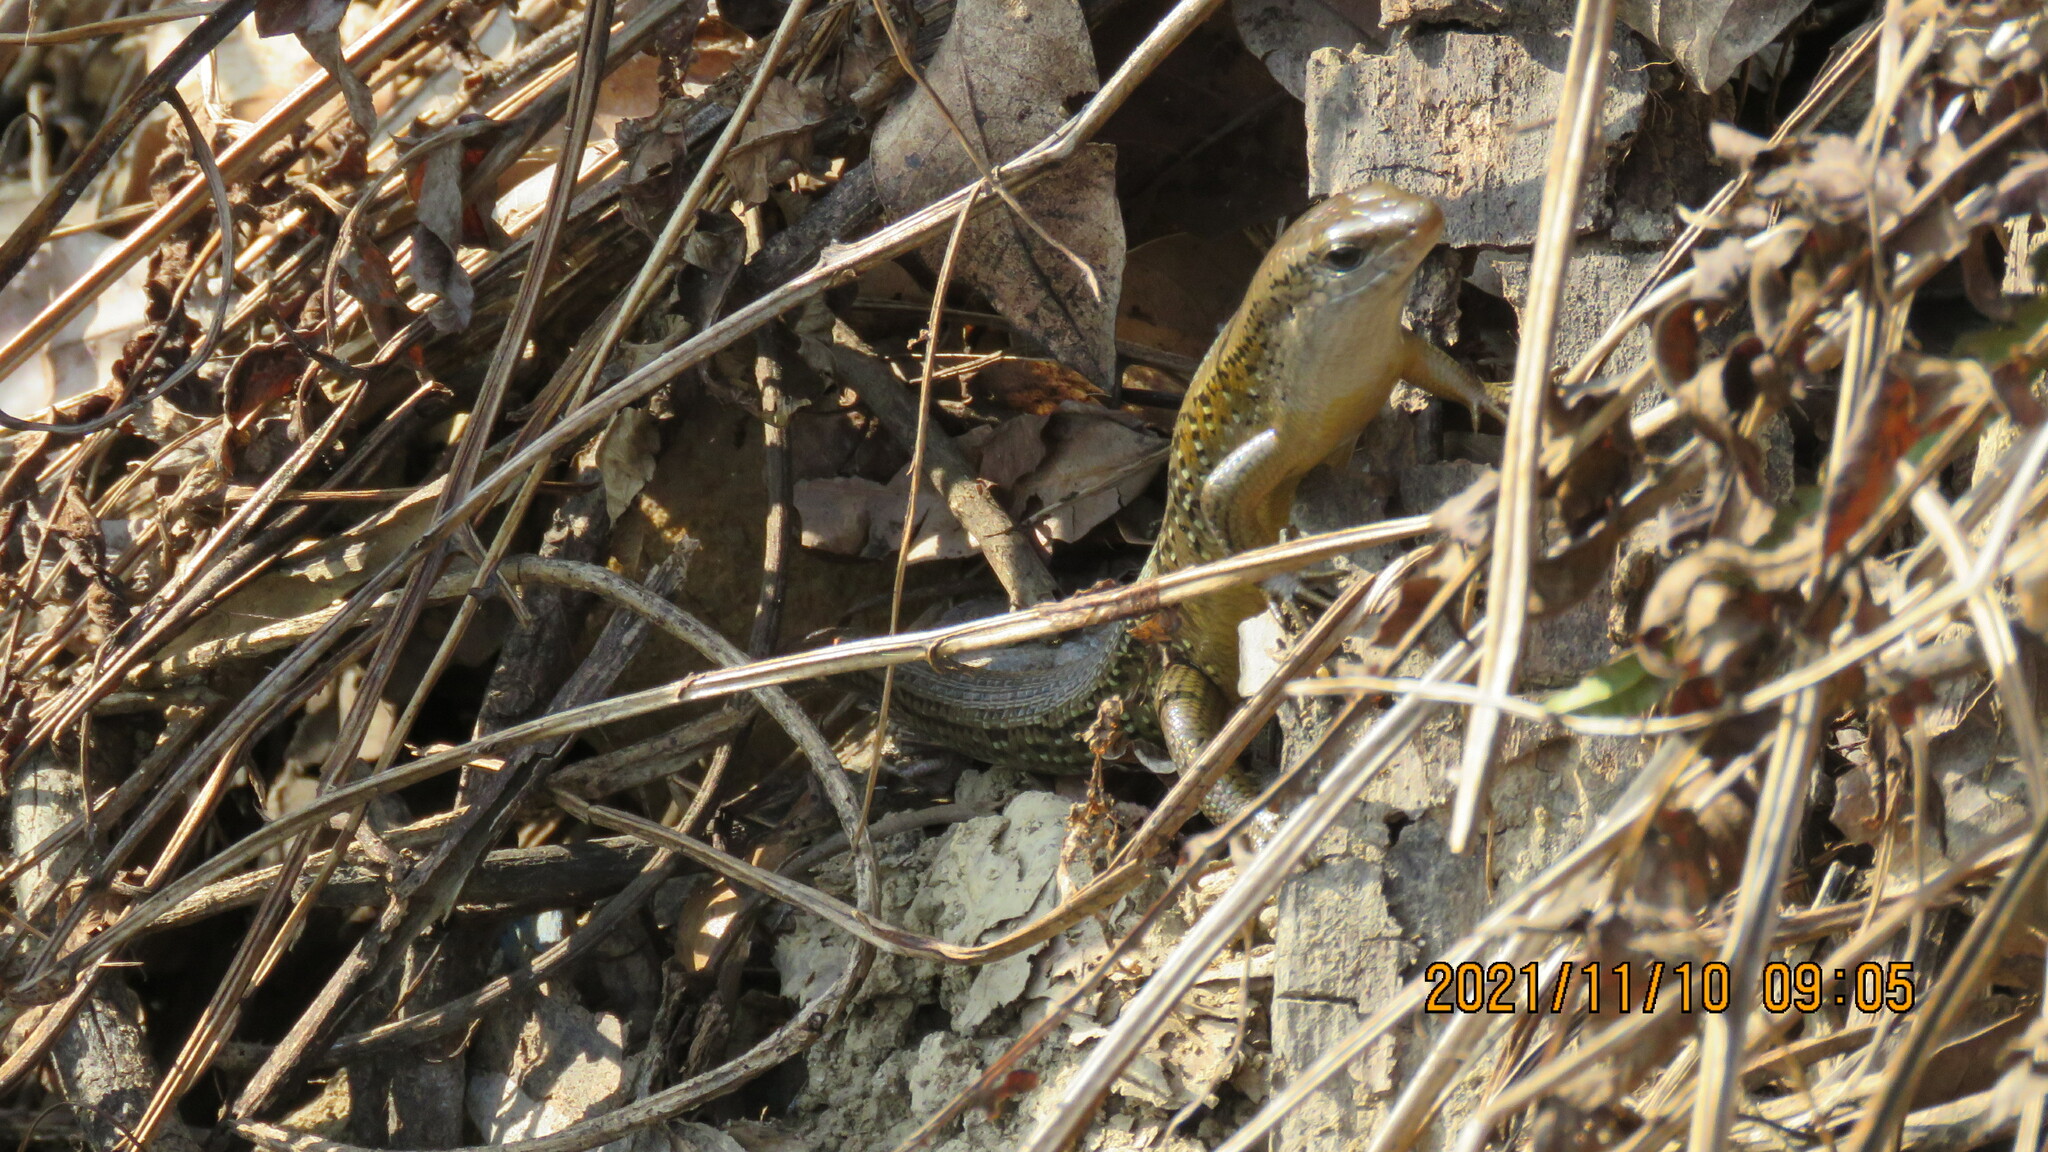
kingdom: Animalia
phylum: Chordata
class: Squamata
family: Scincidae
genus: Eutropis
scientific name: Eutropis multifasciata
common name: Common mabuya
